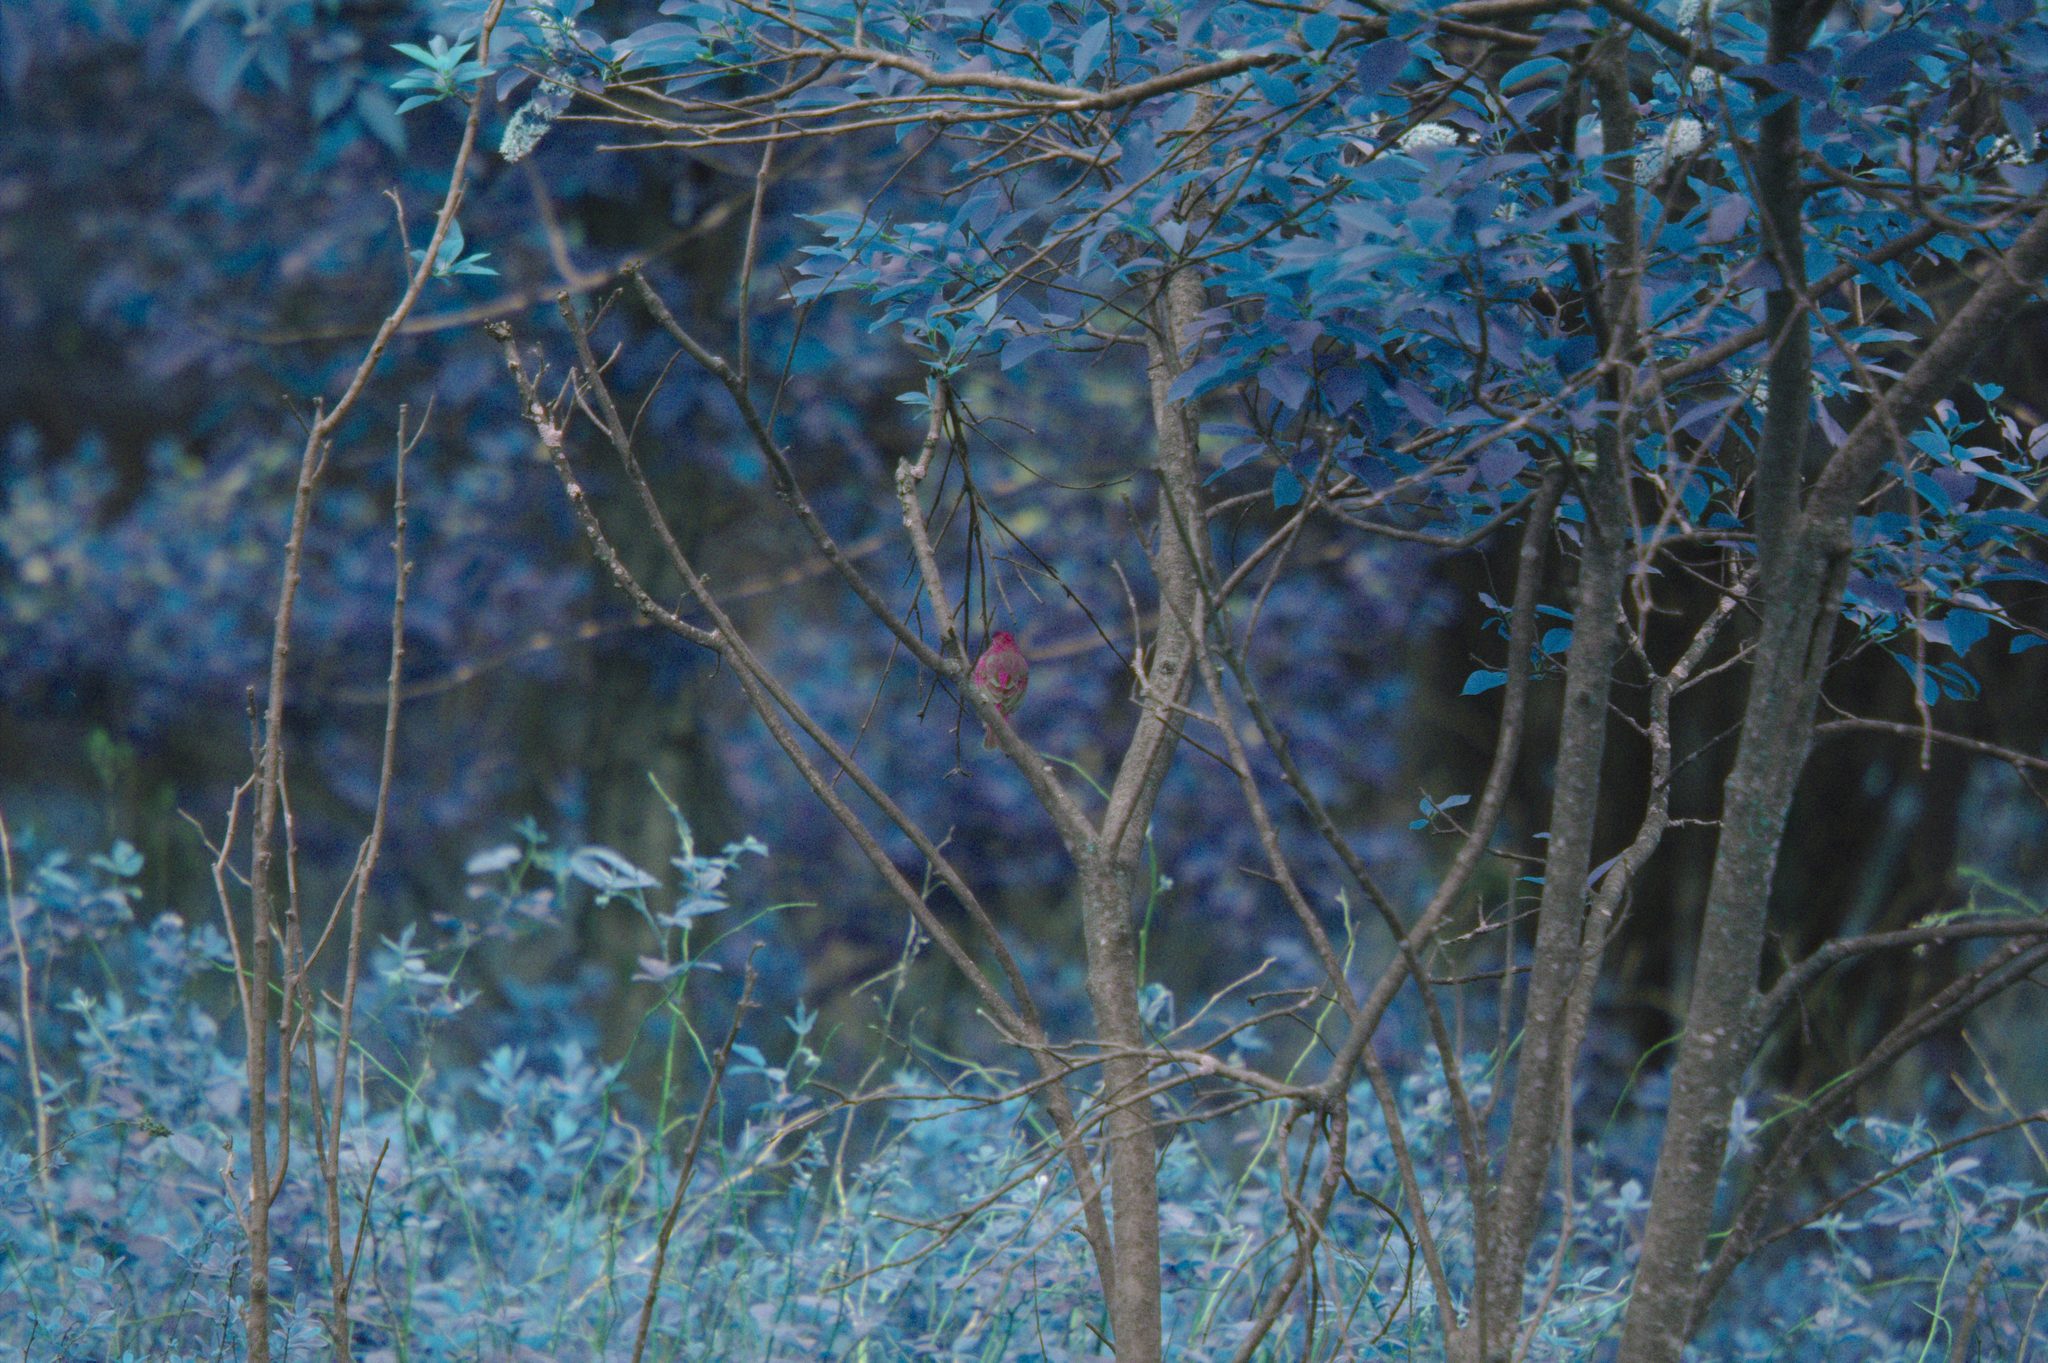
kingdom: Animalia
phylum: Chordata
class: Aves
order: Passeriformes
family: Cardinalidae
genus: Passerina
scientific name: Passerina cyanea
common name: Indigo bunting
